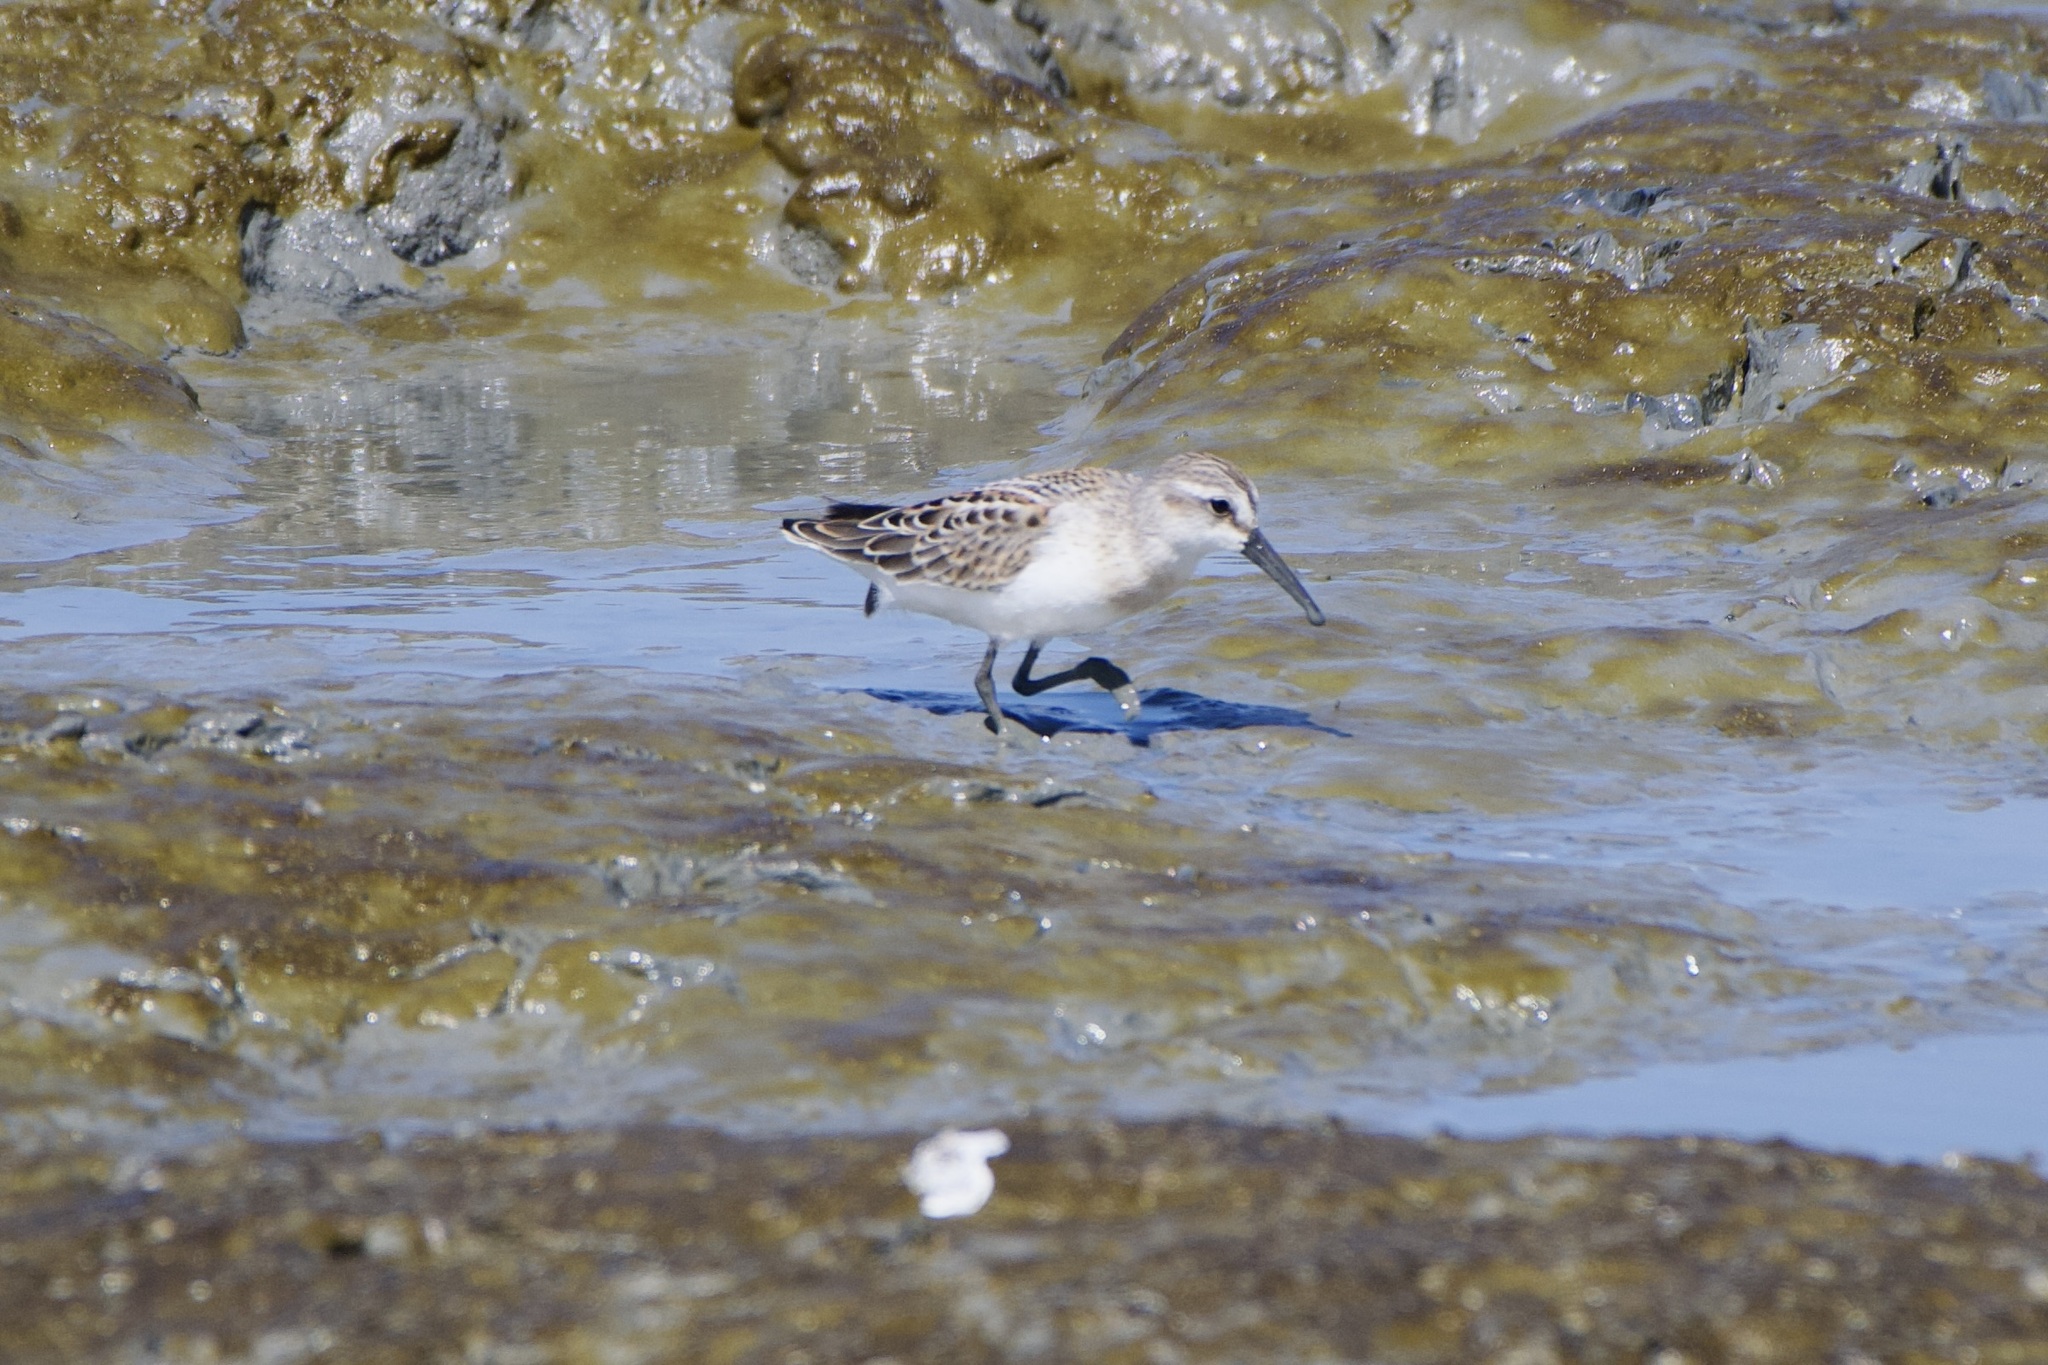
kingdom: Animalia
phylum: Chordata
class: Aves
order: Charadriiformes
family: Scolopacidae
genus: Calidris
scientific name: Calidris mauri
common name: Western sandpiper
